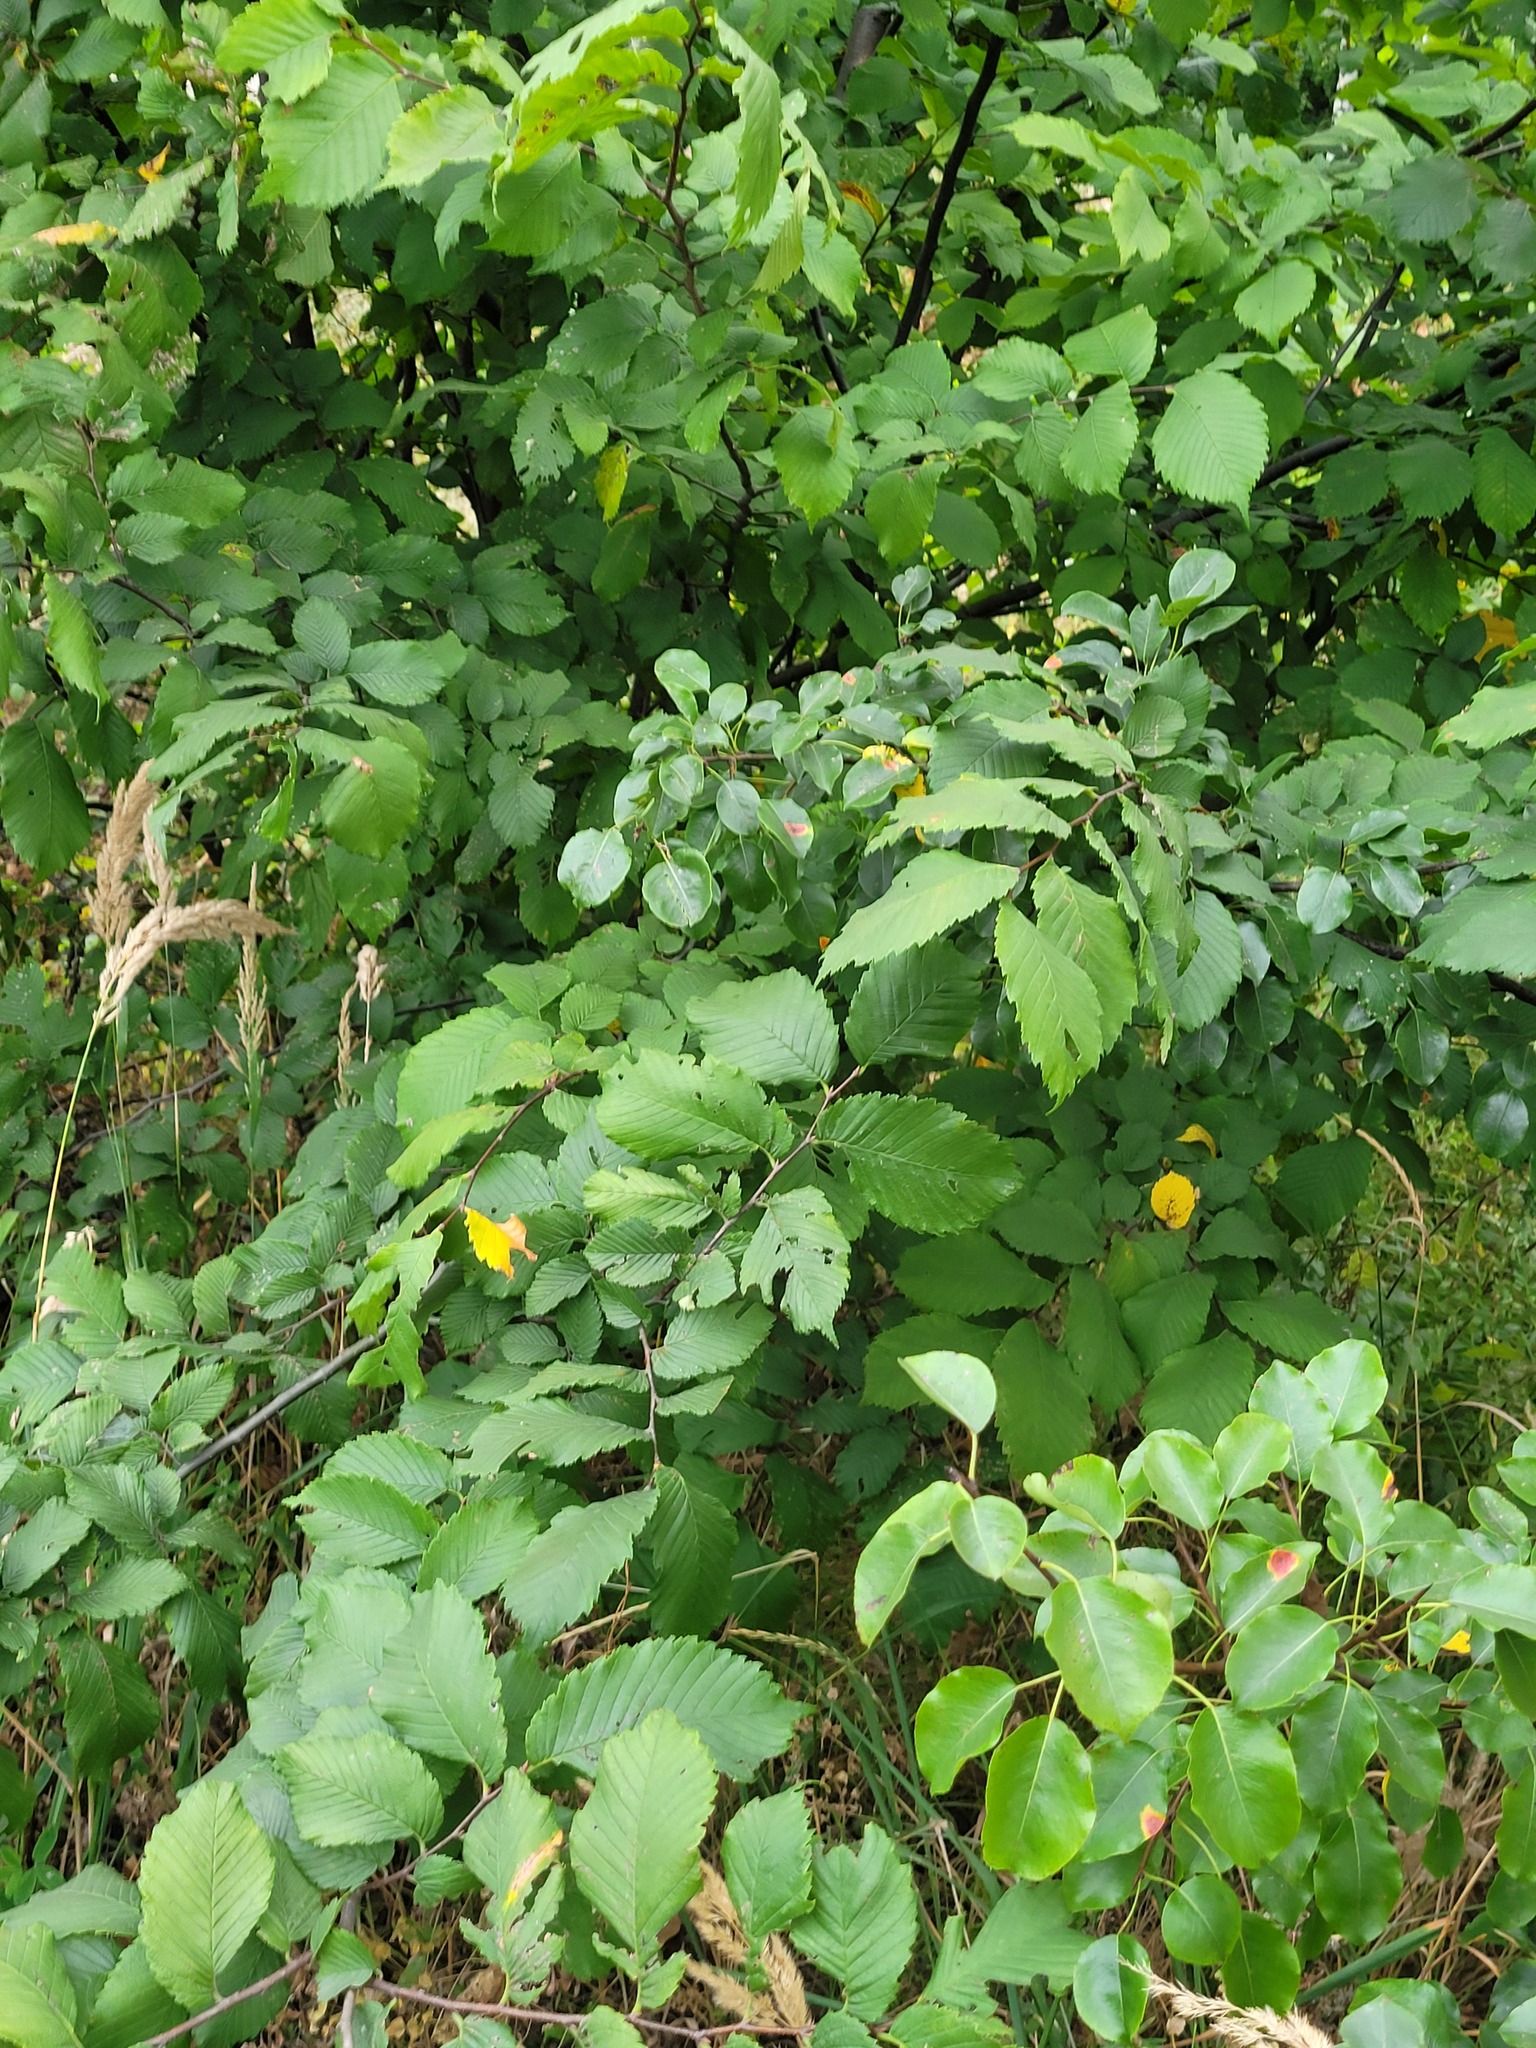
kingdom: Plantae
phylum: Tracheophyta
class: Magnoliopsida
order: Rosales
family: Ulmaceae
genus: Ulmus
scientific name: Ulmus laevis
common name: European white-elm
